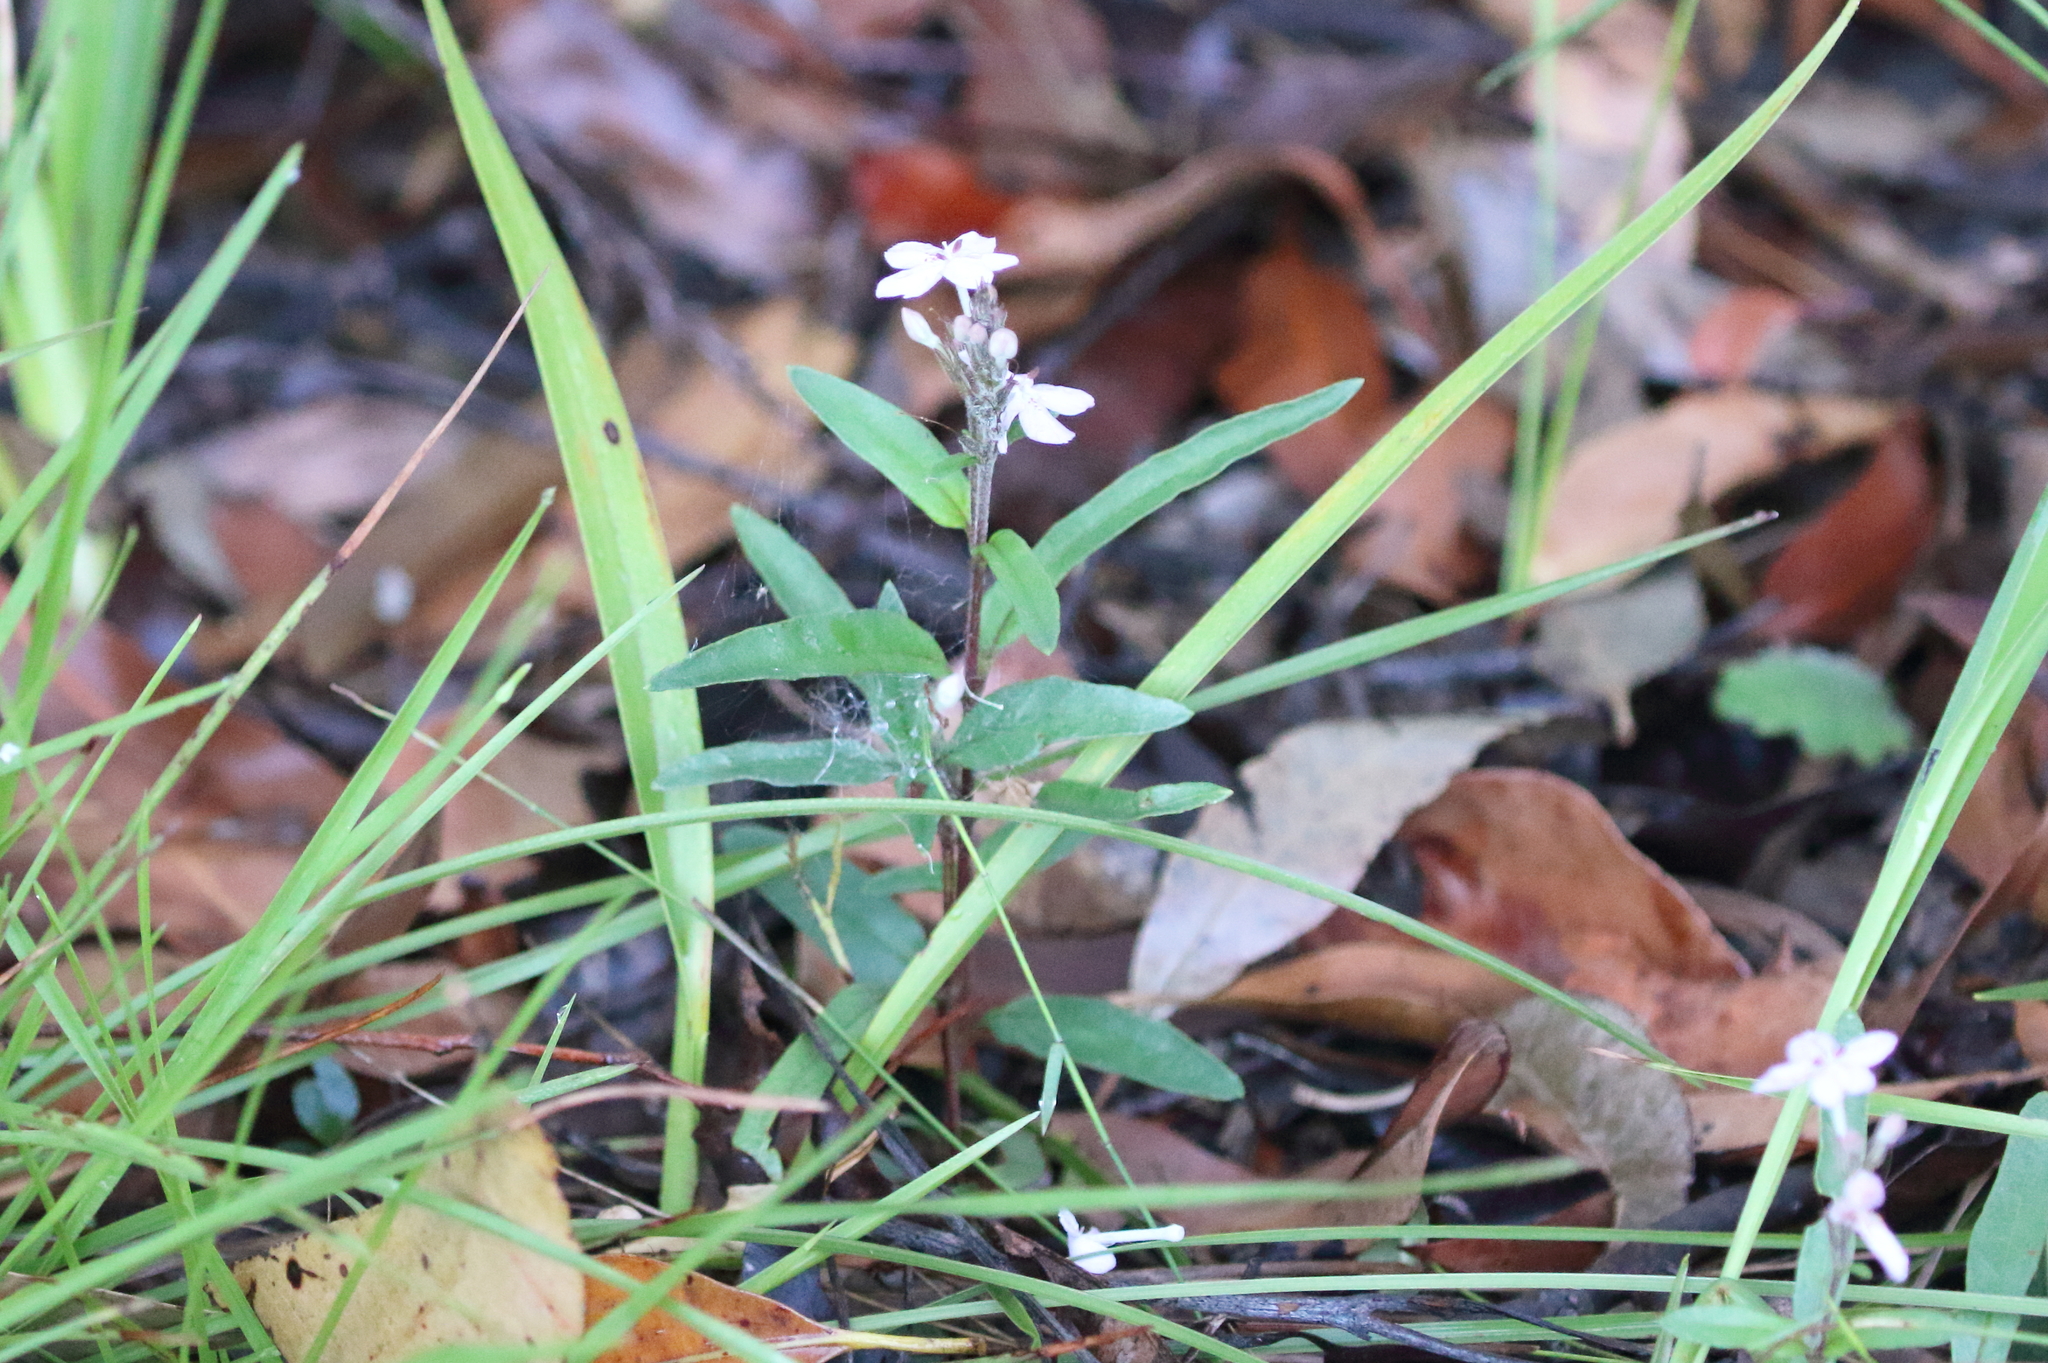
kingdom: Plantae
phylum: Tracheophyta
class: Magnoliopsida
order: Lamiales
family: Acanthaceae
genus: Pseuderanthemum
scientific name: Pseuderanthemum variabile
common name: Night and afternoon
